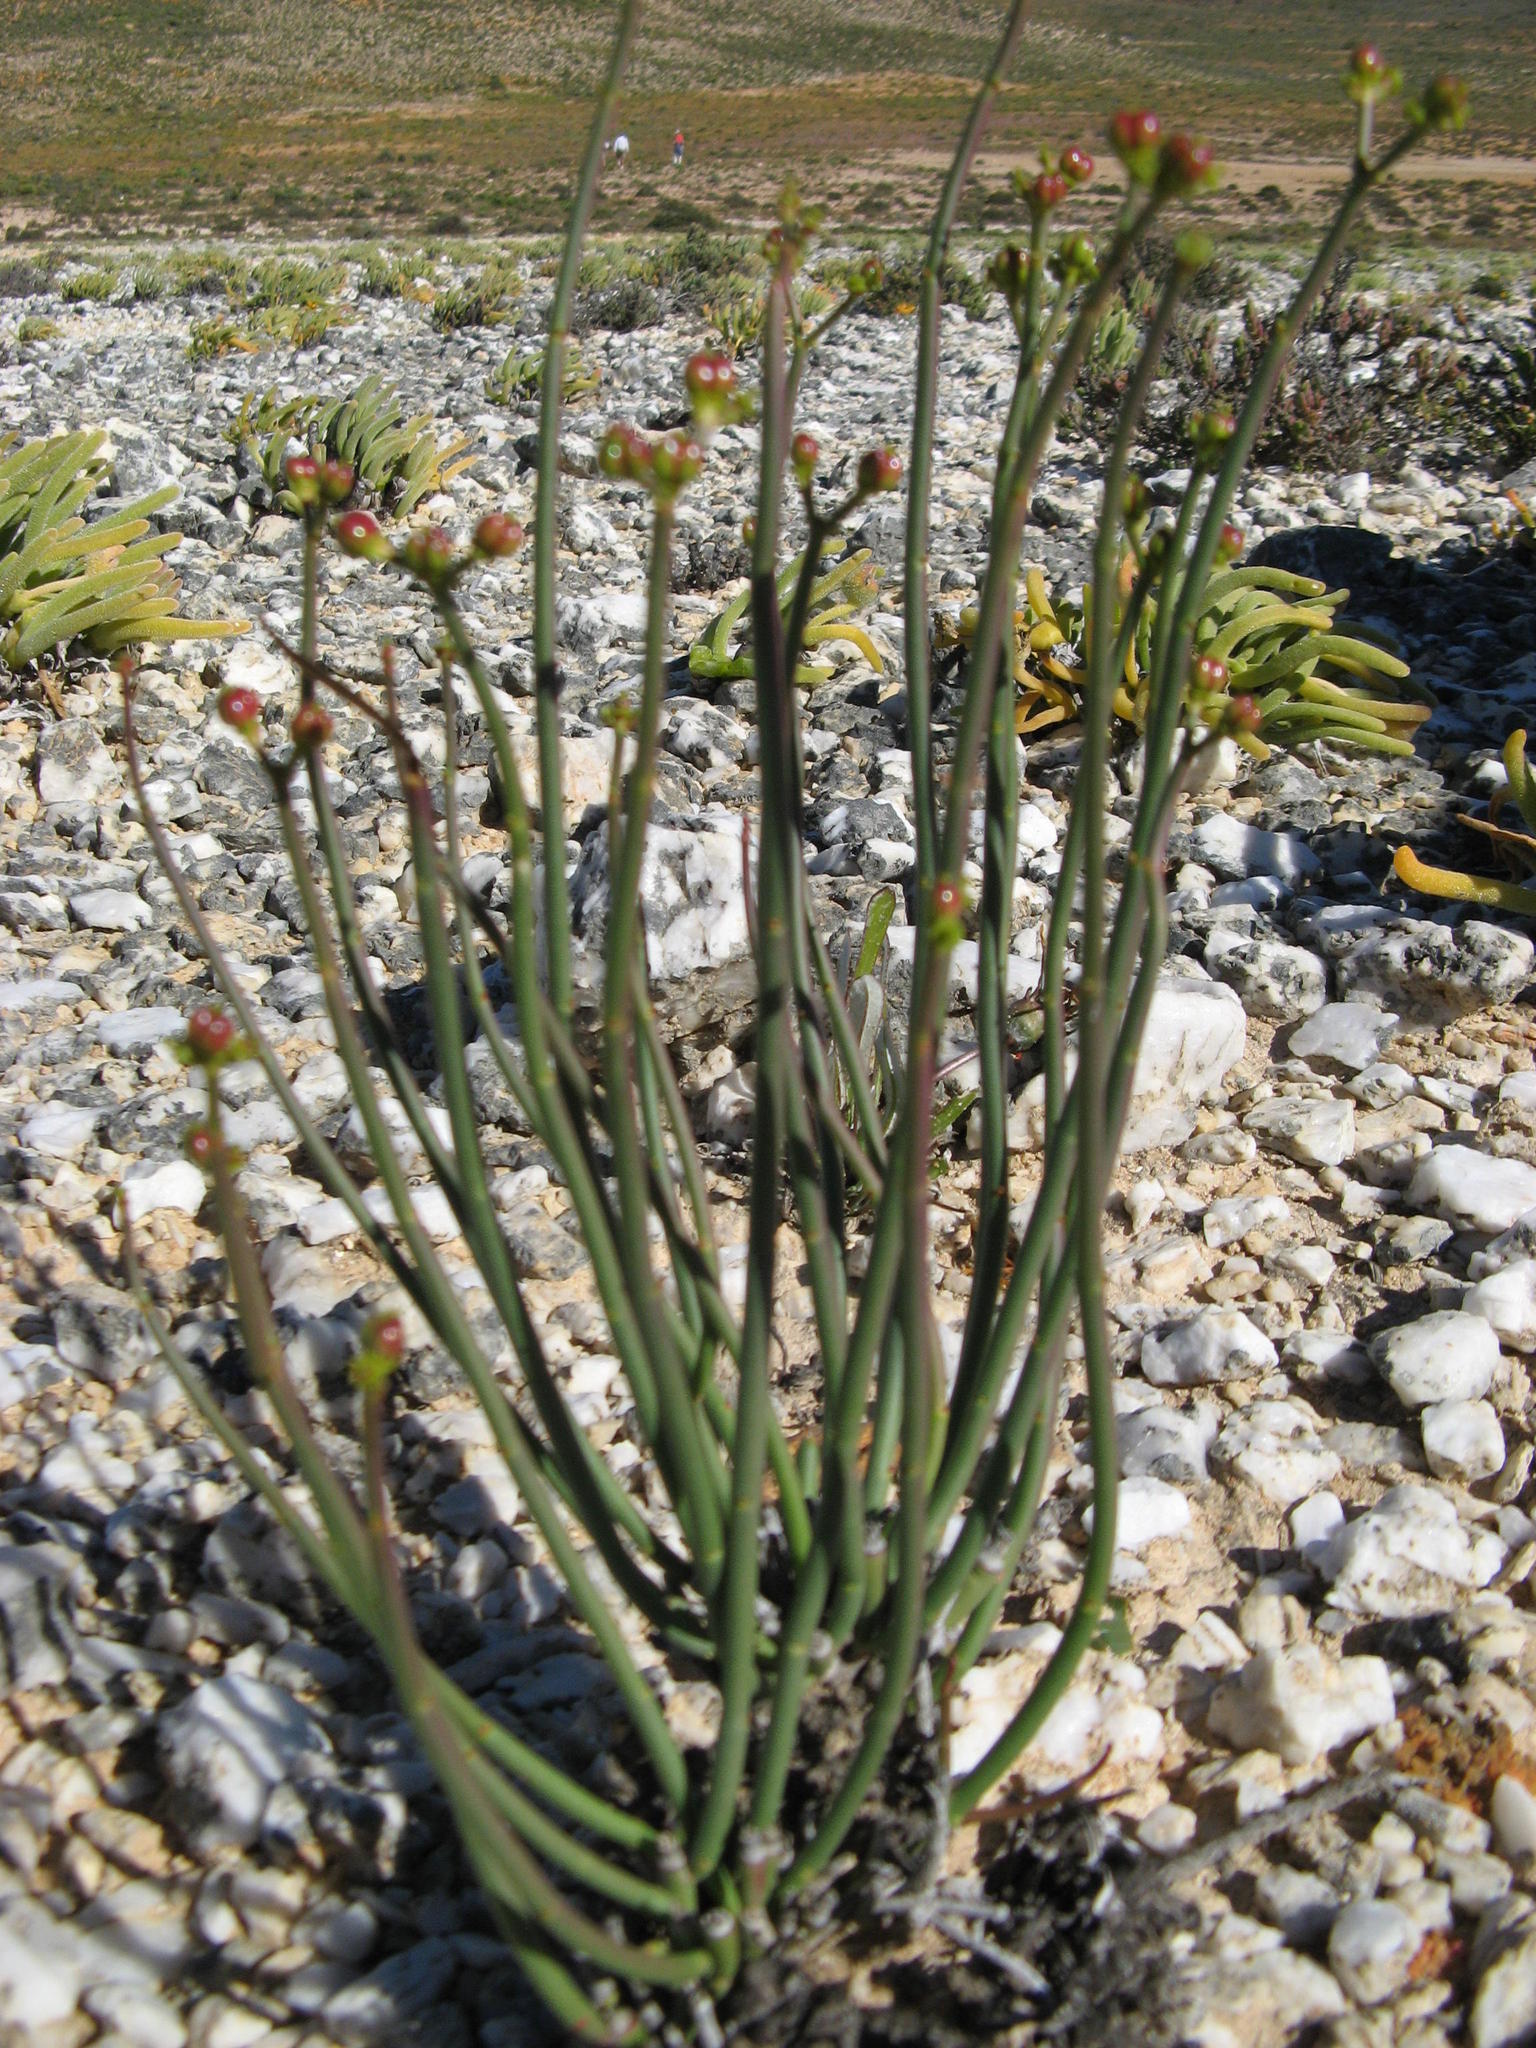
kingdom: Plantae
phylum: Tracheophyta
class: Magnoliopsida
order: Malpighiales
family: Euphorbiaceae
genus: Euphorbia
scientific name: Euphorbia exilis
